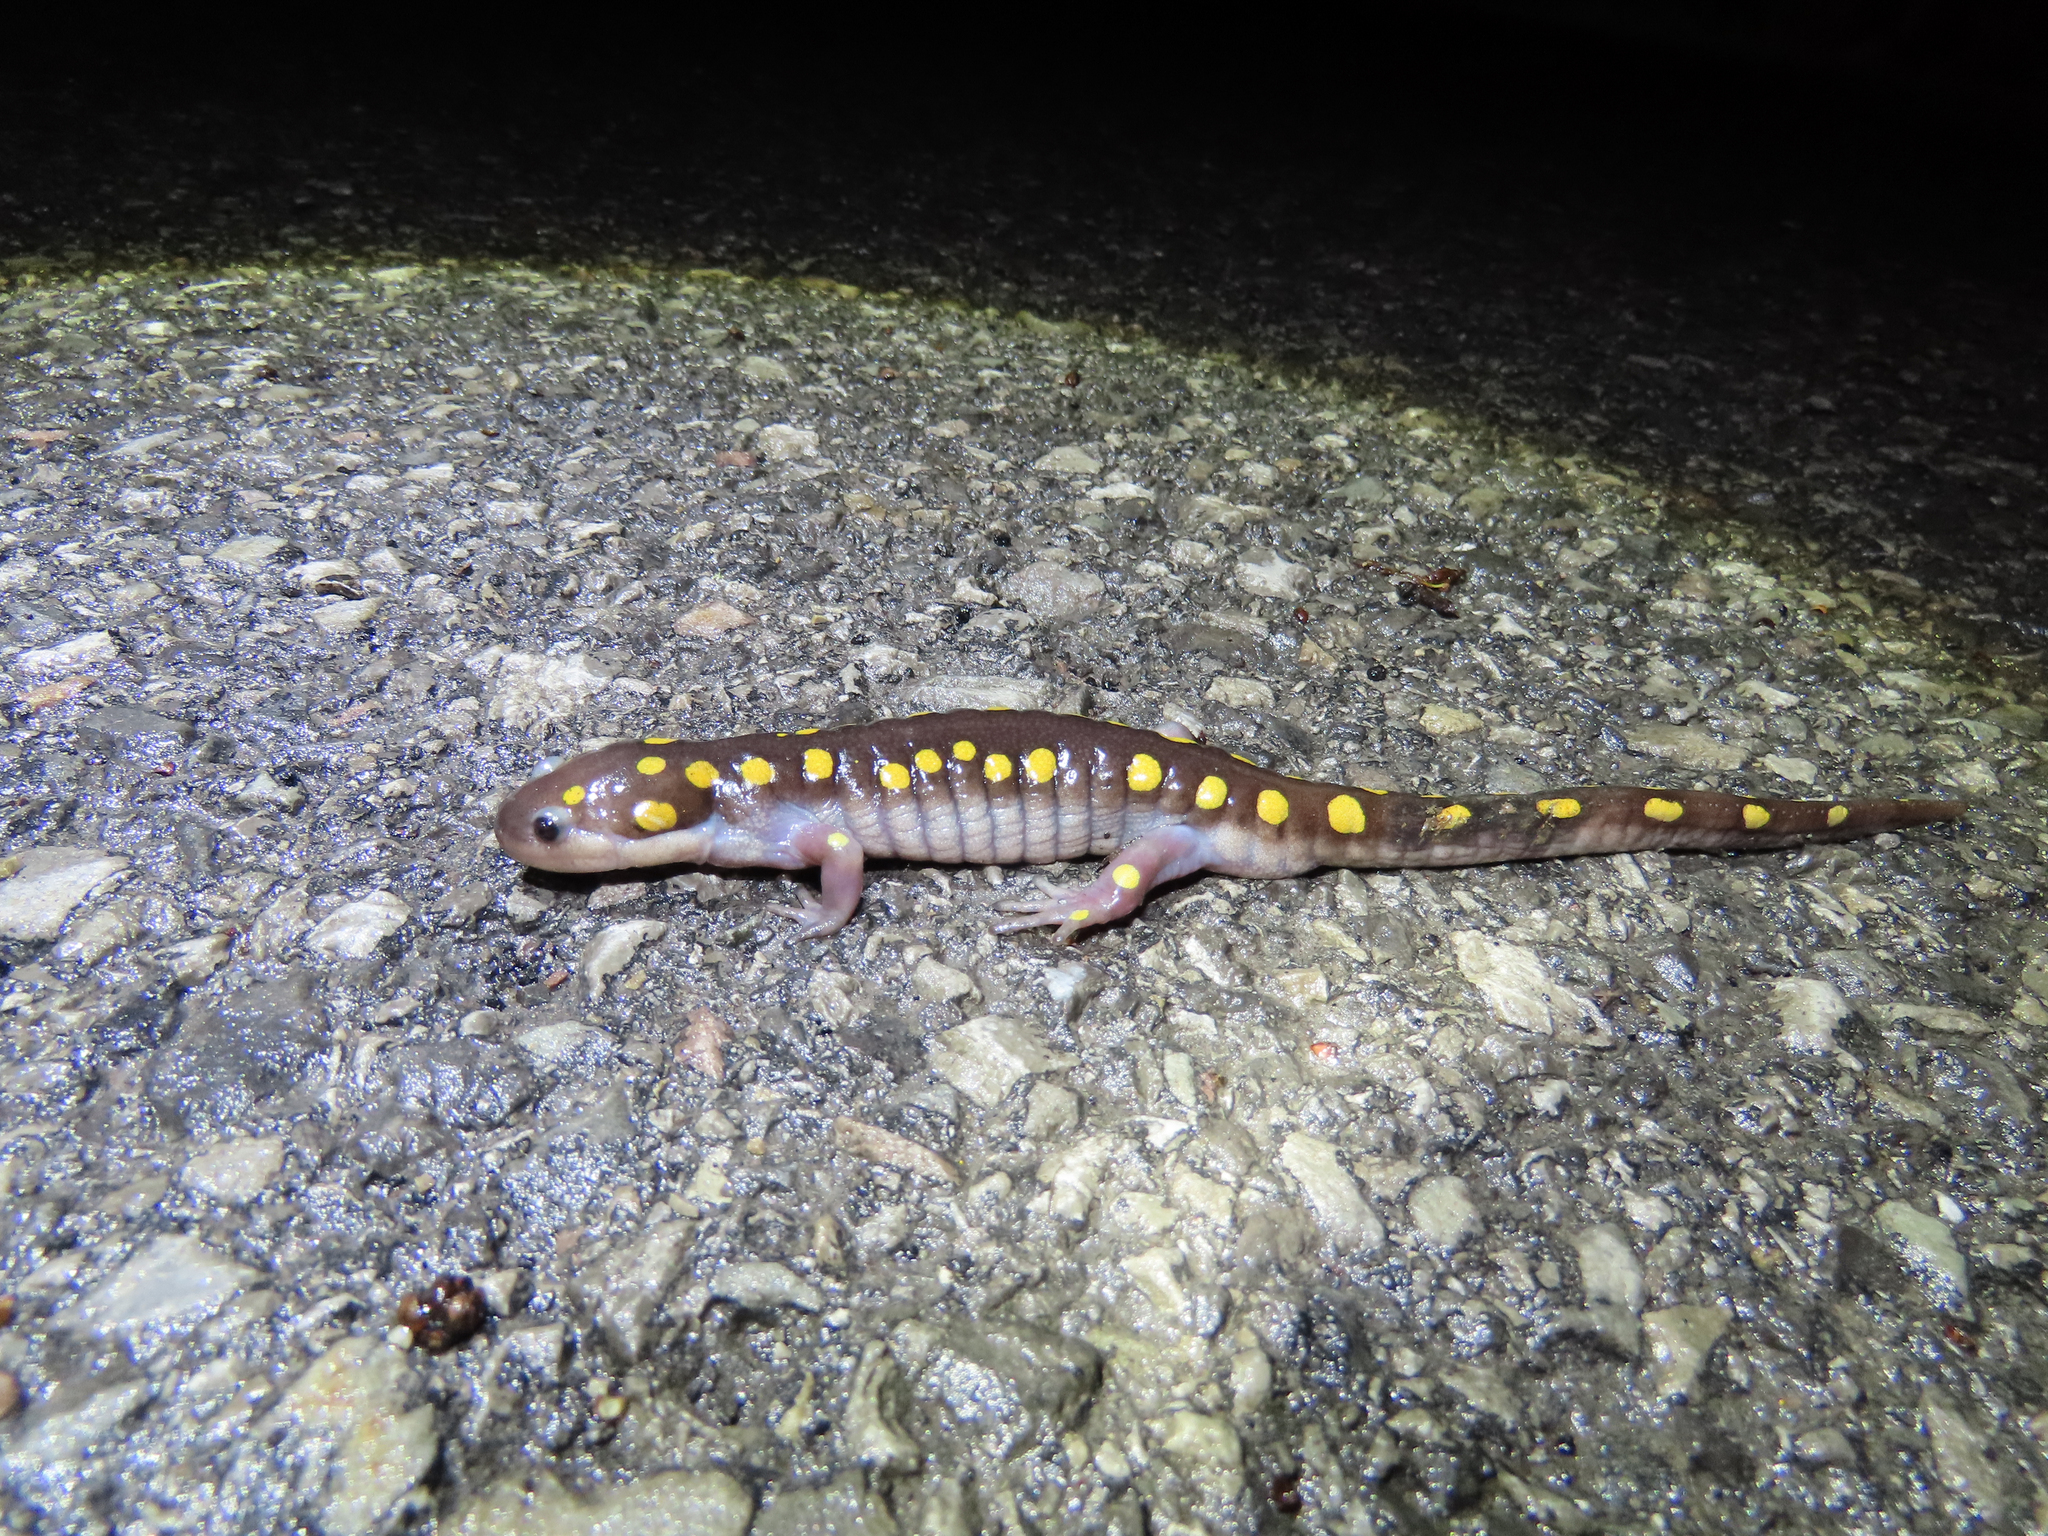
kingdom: Animalia
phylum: Chordata
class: Amphibia
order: Caudata
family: Ambystomatidae
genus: Ambystoma
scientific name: Ambystoma maculatum
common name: Spotted salamander
